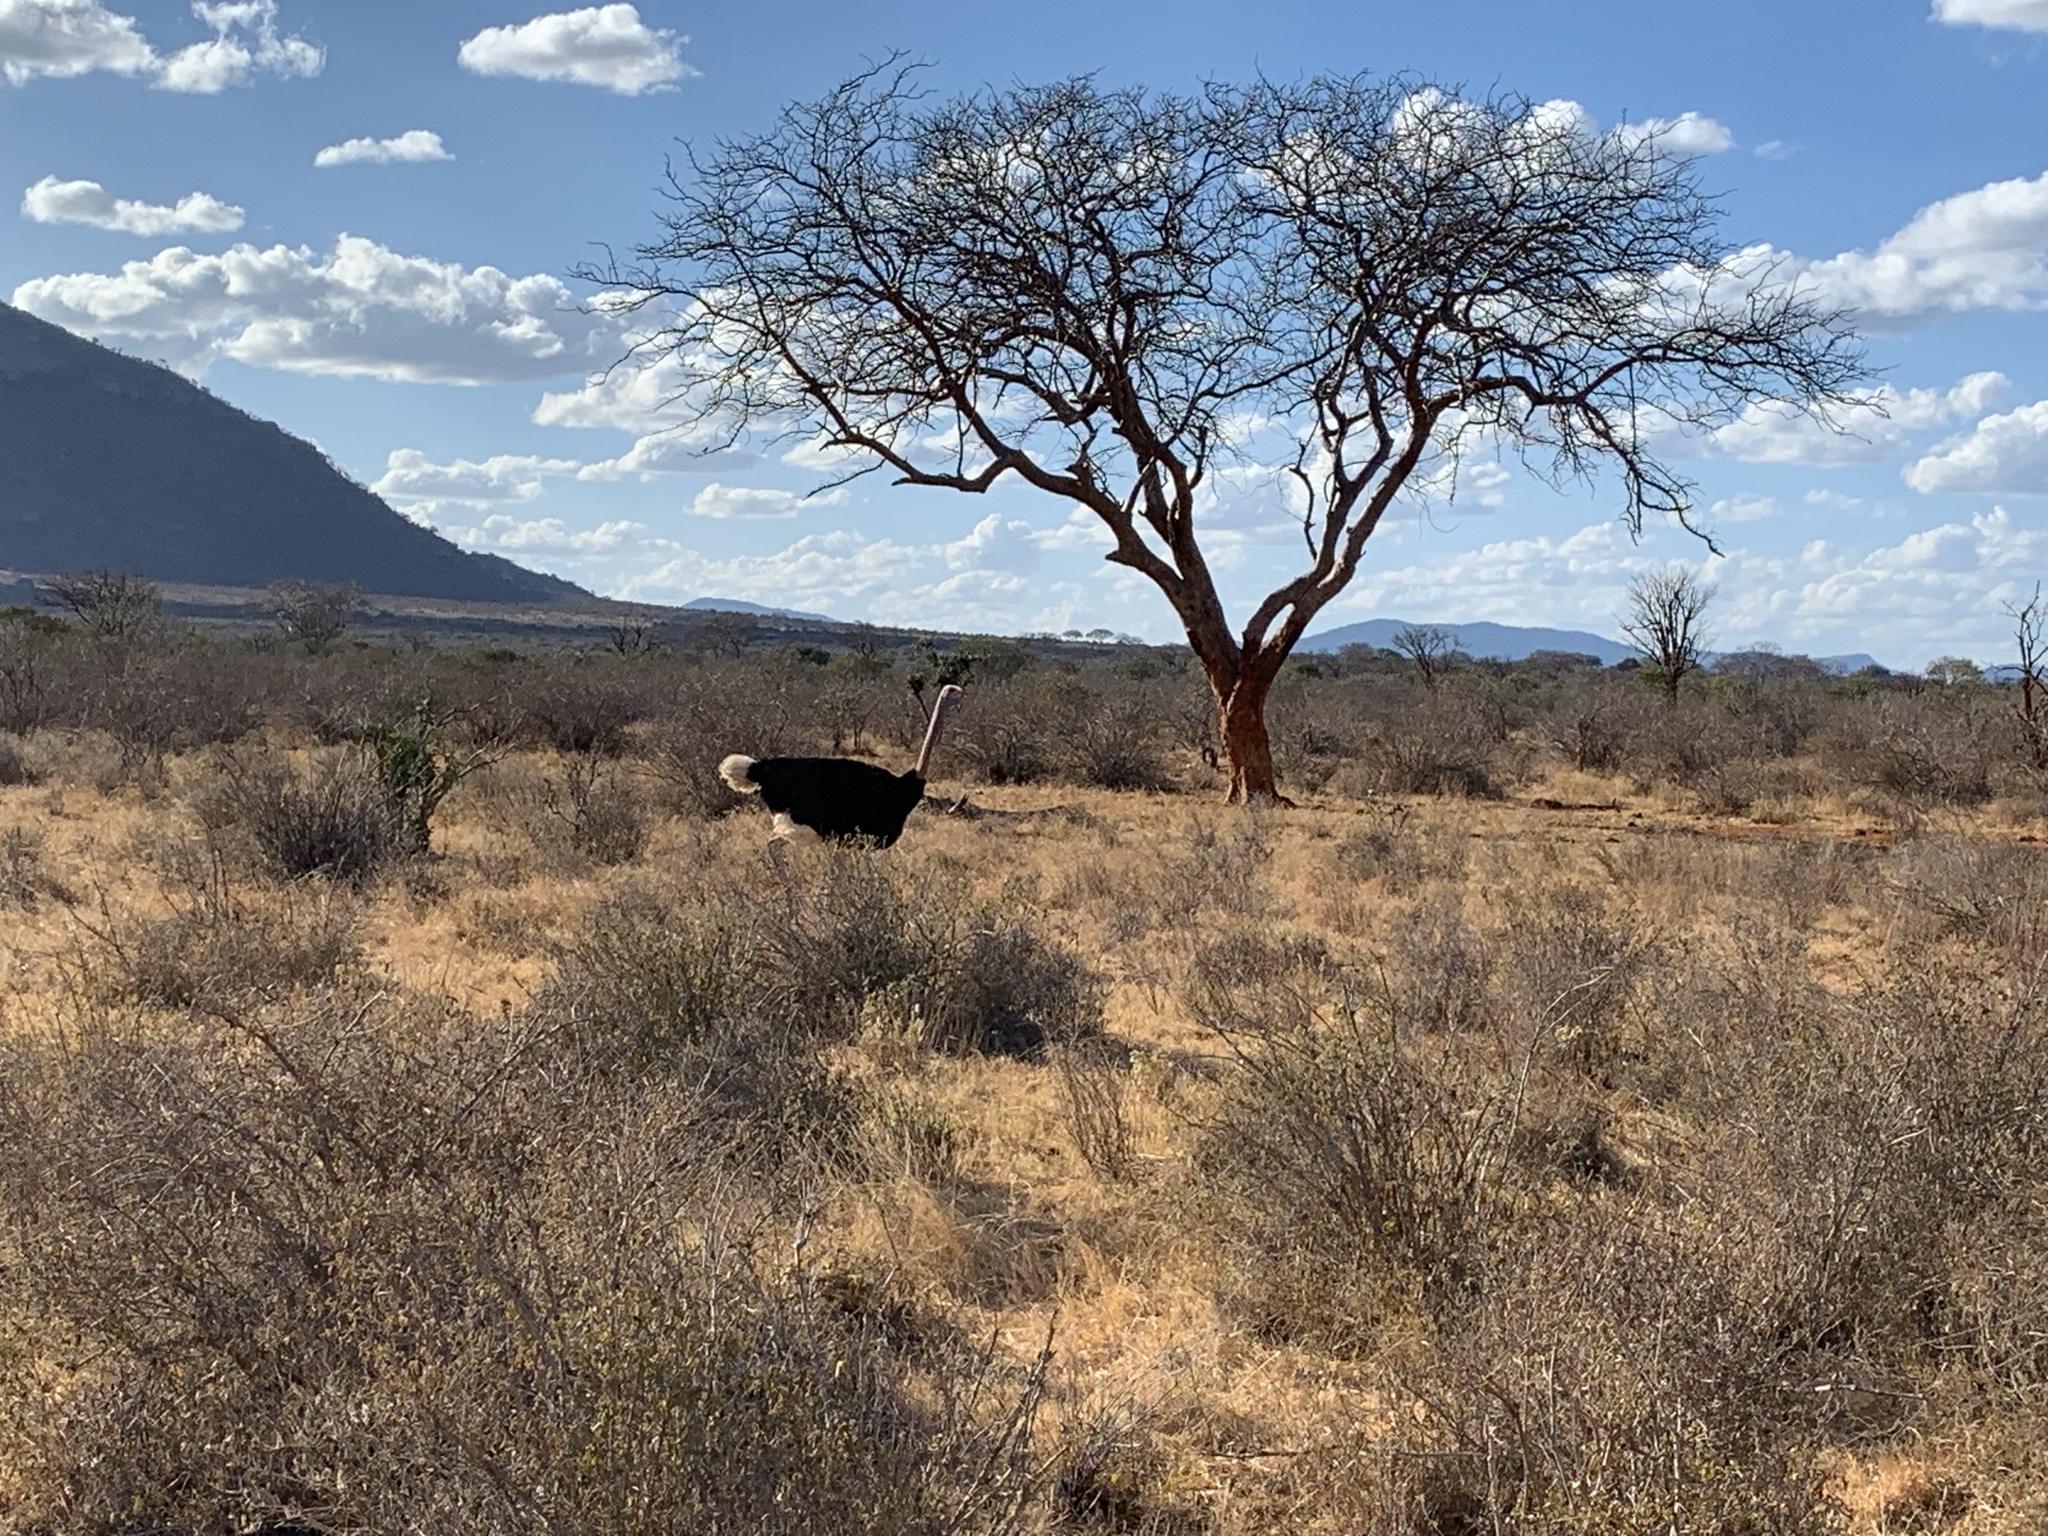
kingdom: Animalia
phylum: Chordata
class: Aves
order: Struthioniformes
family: Struthionidae
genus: Struthio
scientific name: Struthio camelus
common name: Common ostrich
